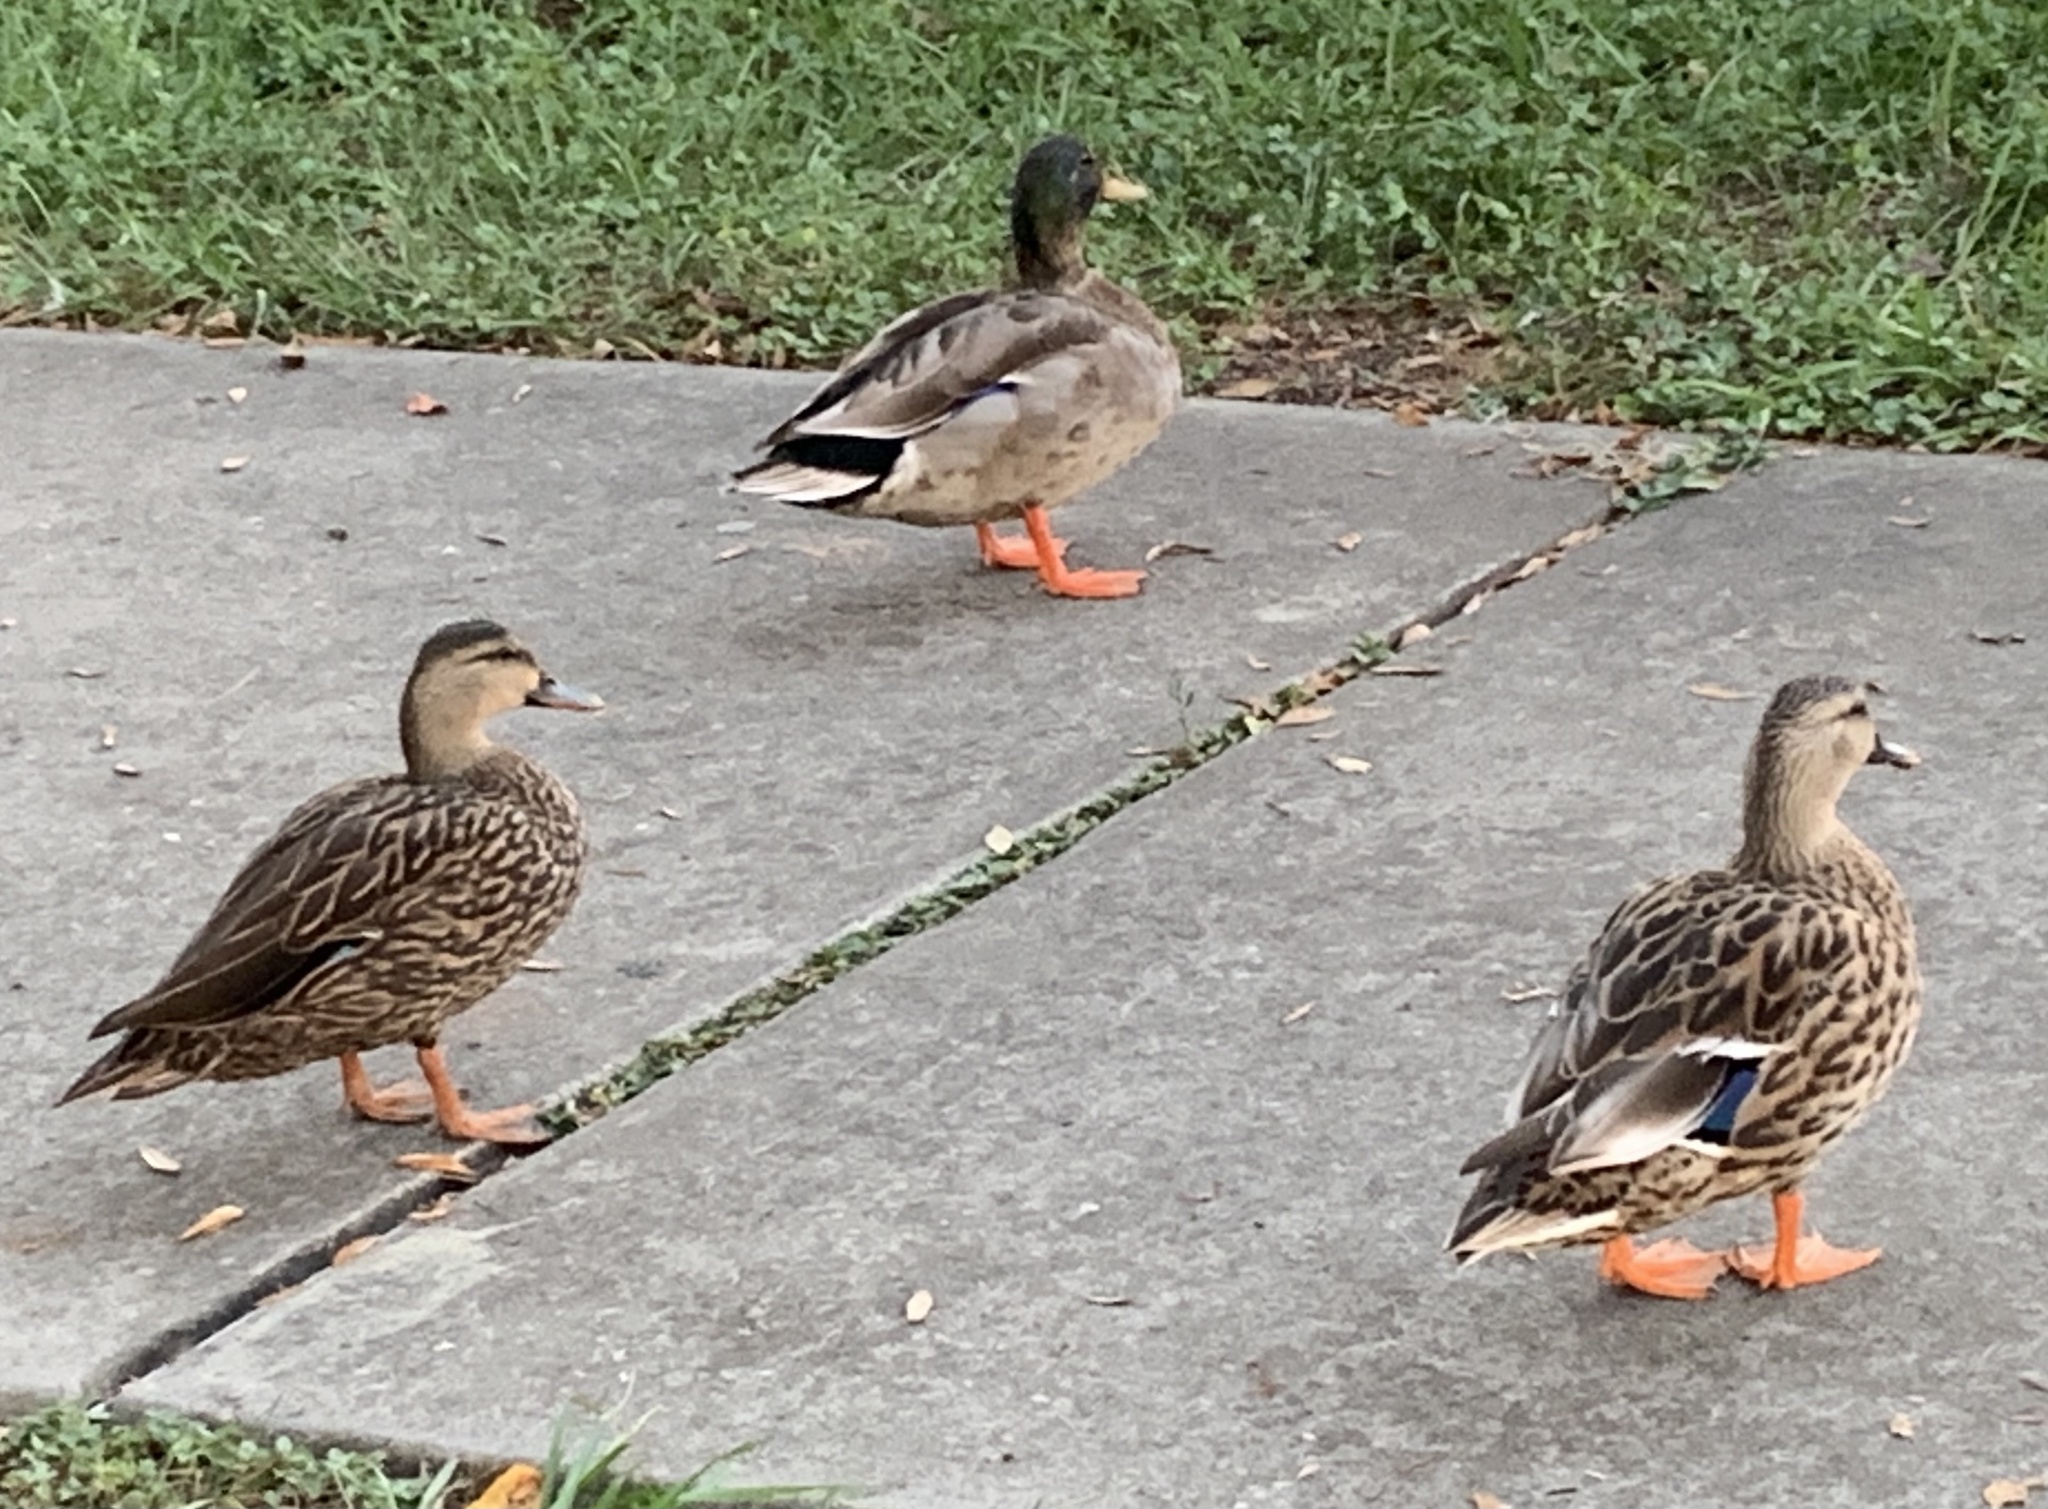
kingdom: Animalia
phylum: Chordata
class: Aves
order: Anseriformes
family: Anatidae
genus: Anas
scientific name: Anas platyrhynchos
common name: Mallard
